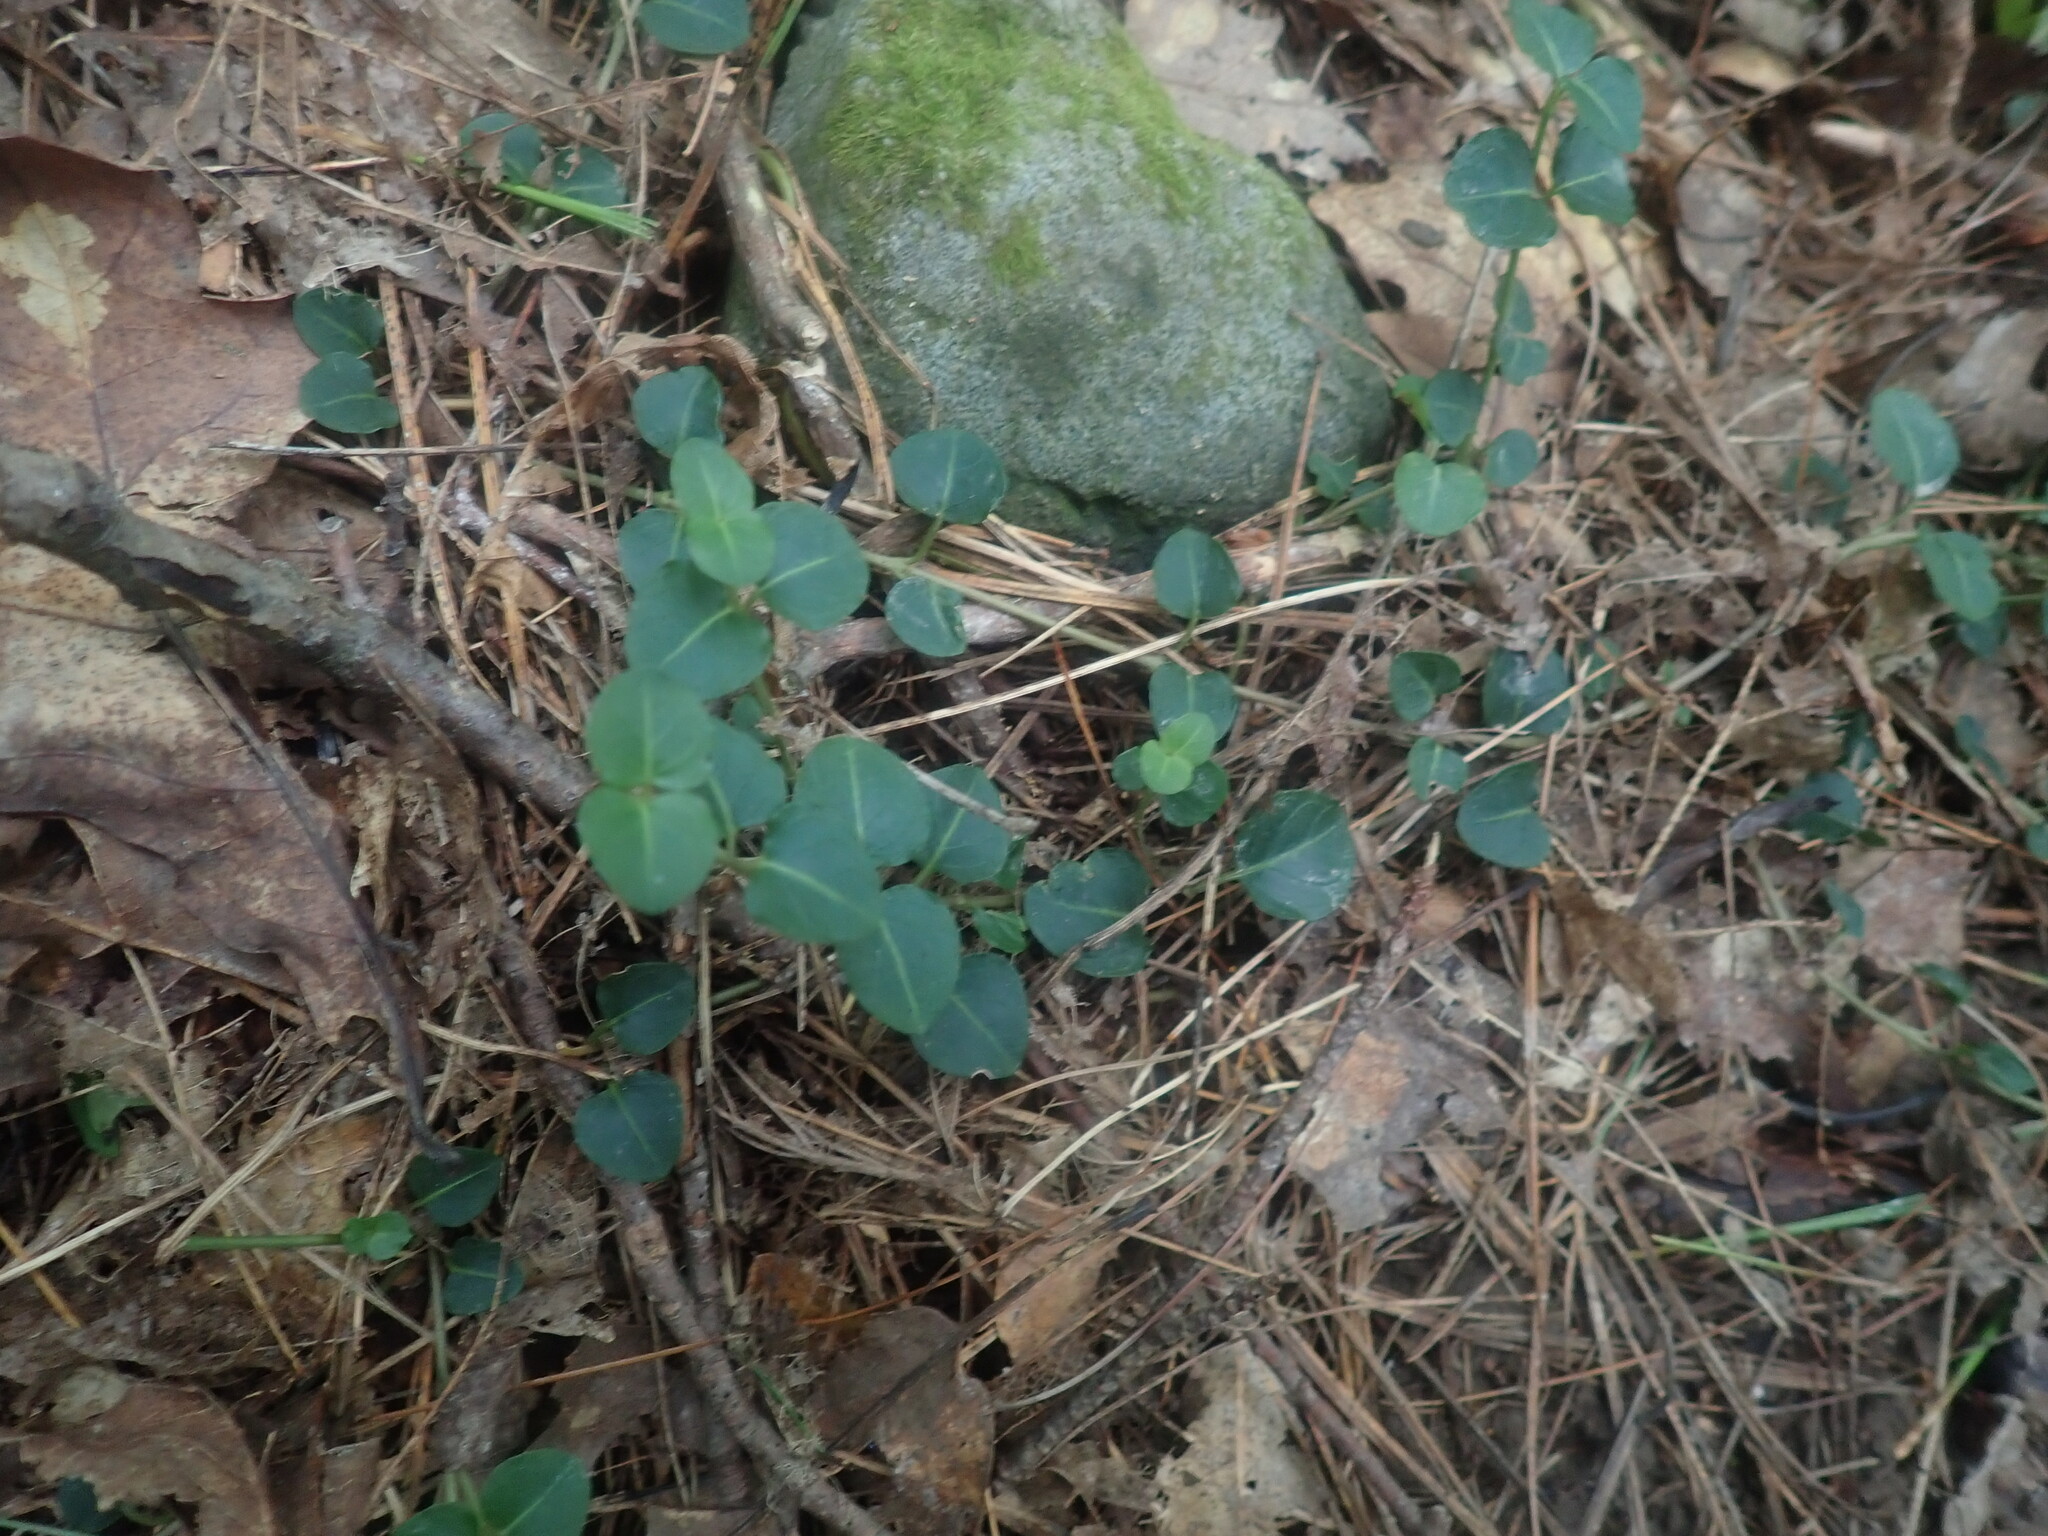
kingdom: Plantae
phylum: Tracheophyta
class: Magnoliopsida
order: Gentianales
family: Rubiaceae
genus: Mitchella
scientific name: Mitchella repens
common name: Partridge-berry
